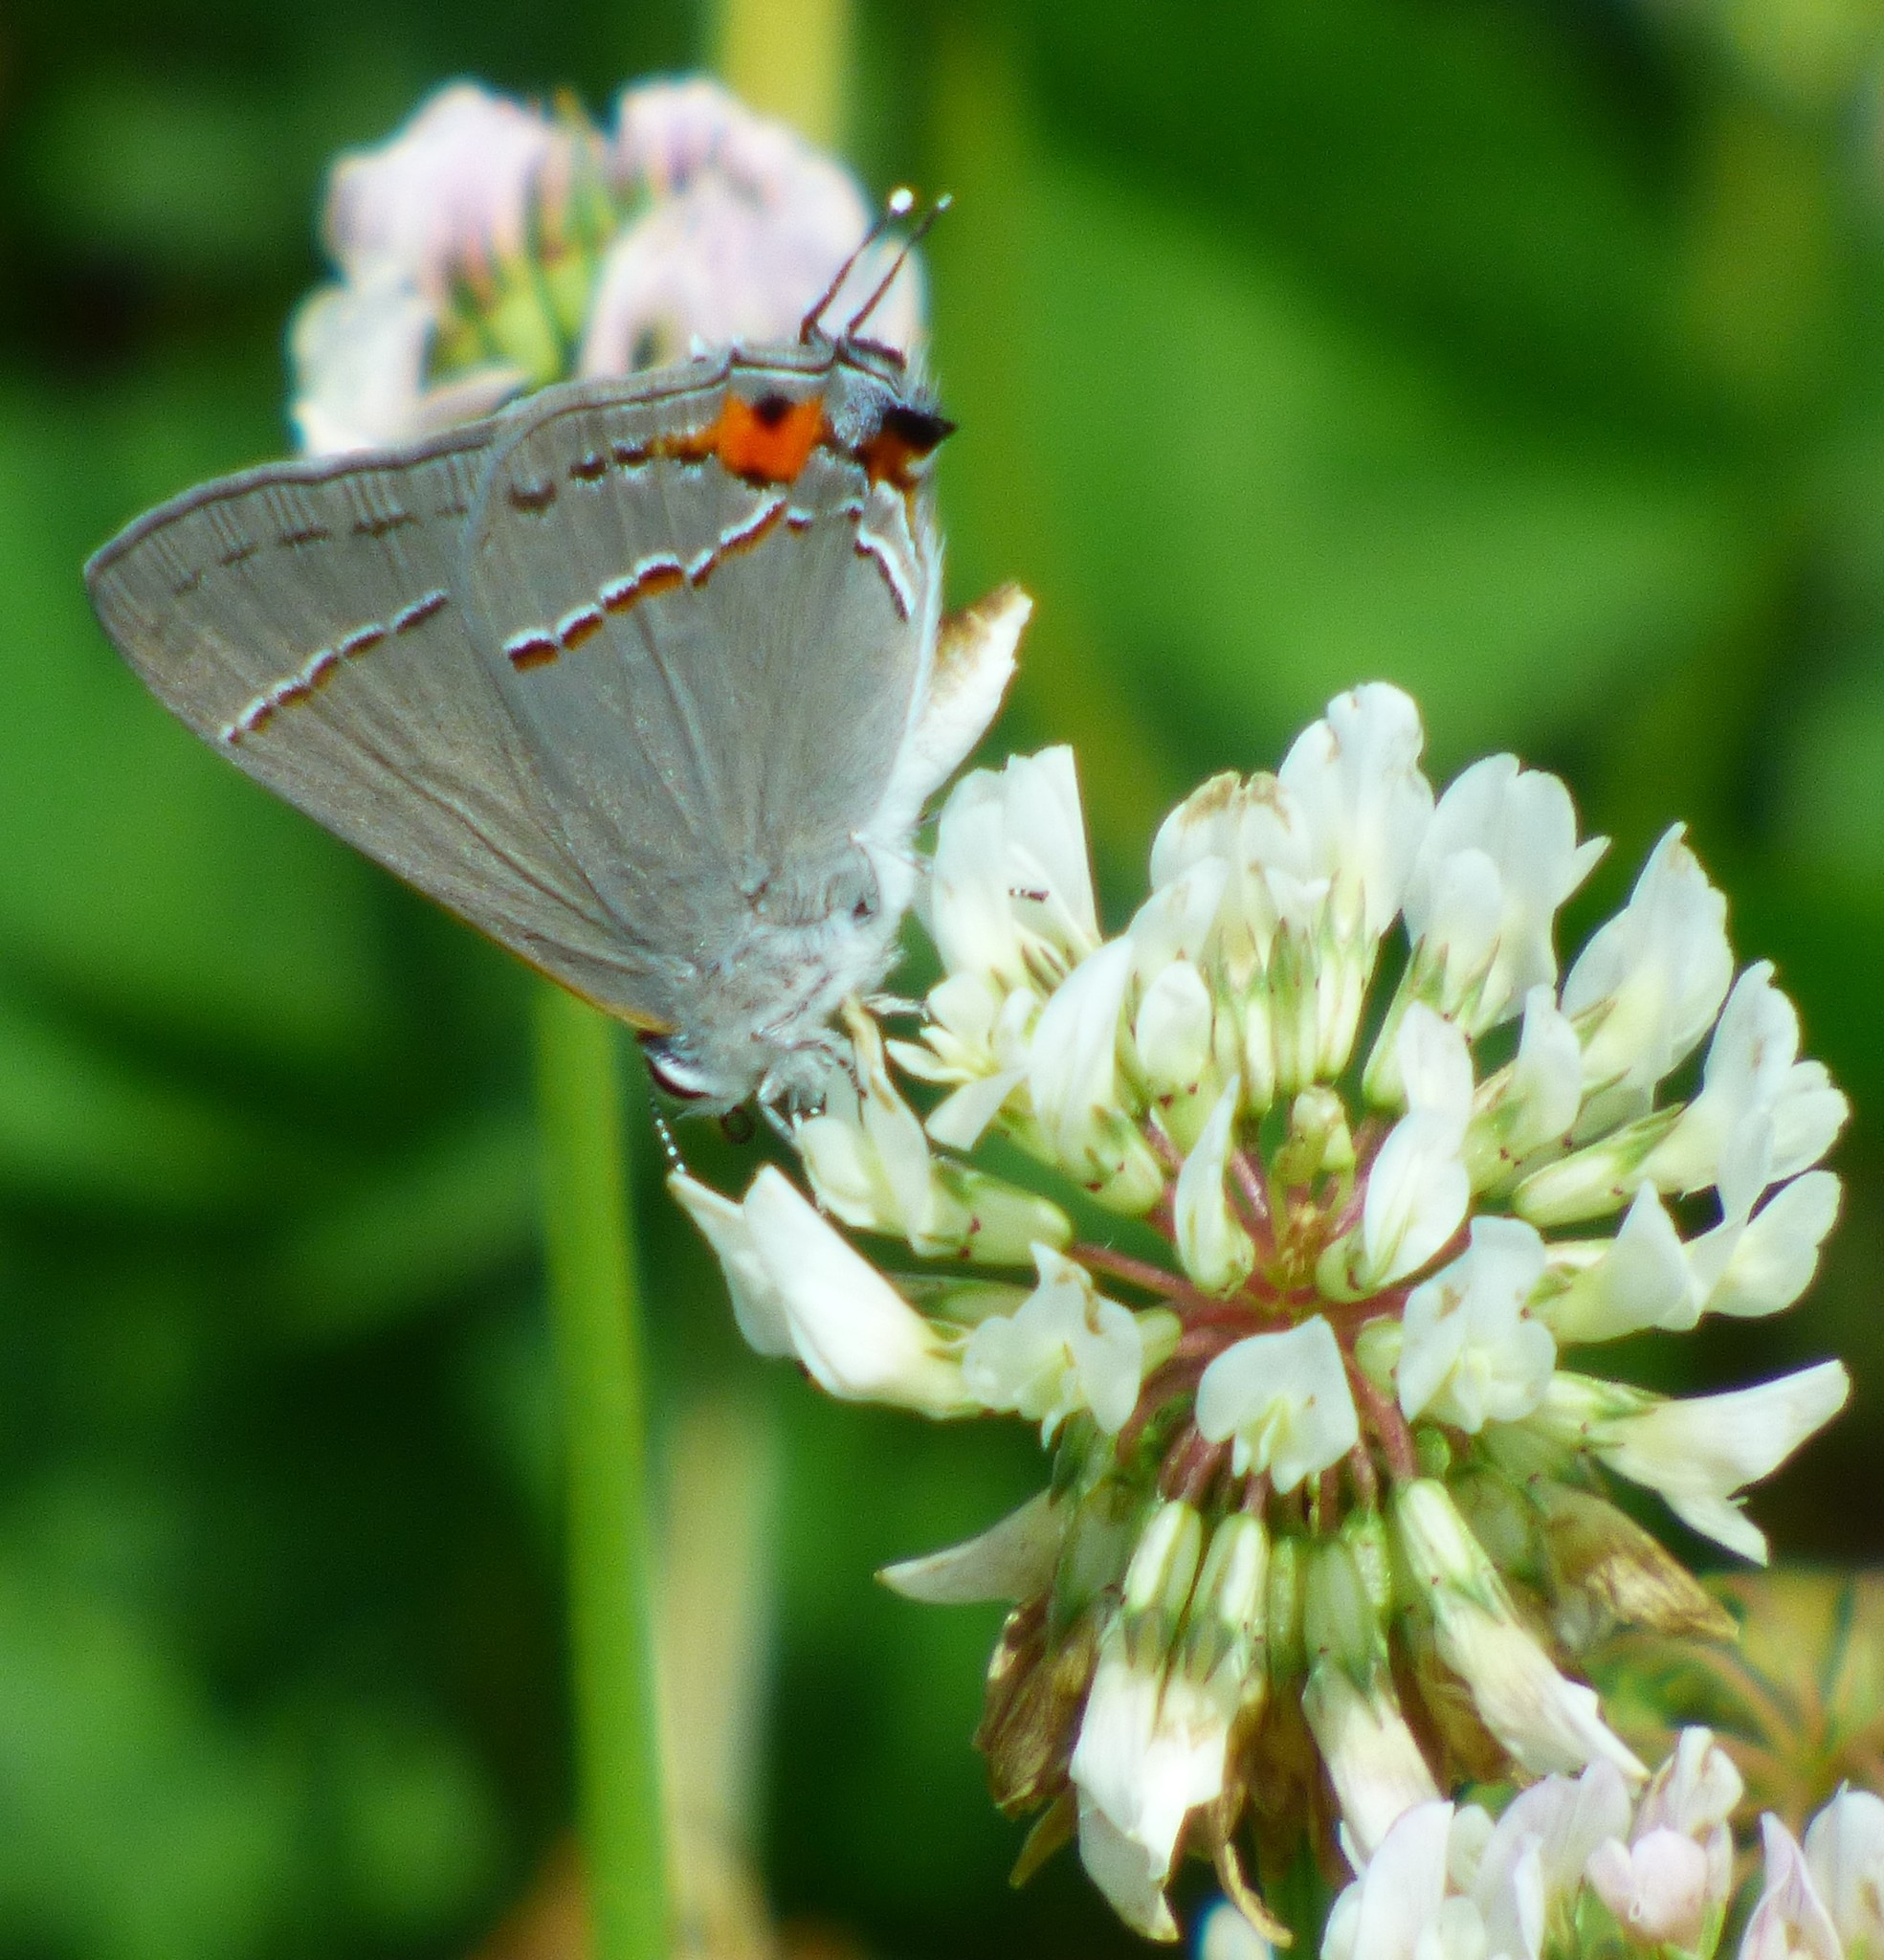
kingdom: Animalia
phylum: Arthropoda
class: Insecta
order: Lepidoptera
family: Lycaenidae
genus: Strymon
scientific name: Strymon melinus
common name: Gray hairstreak
